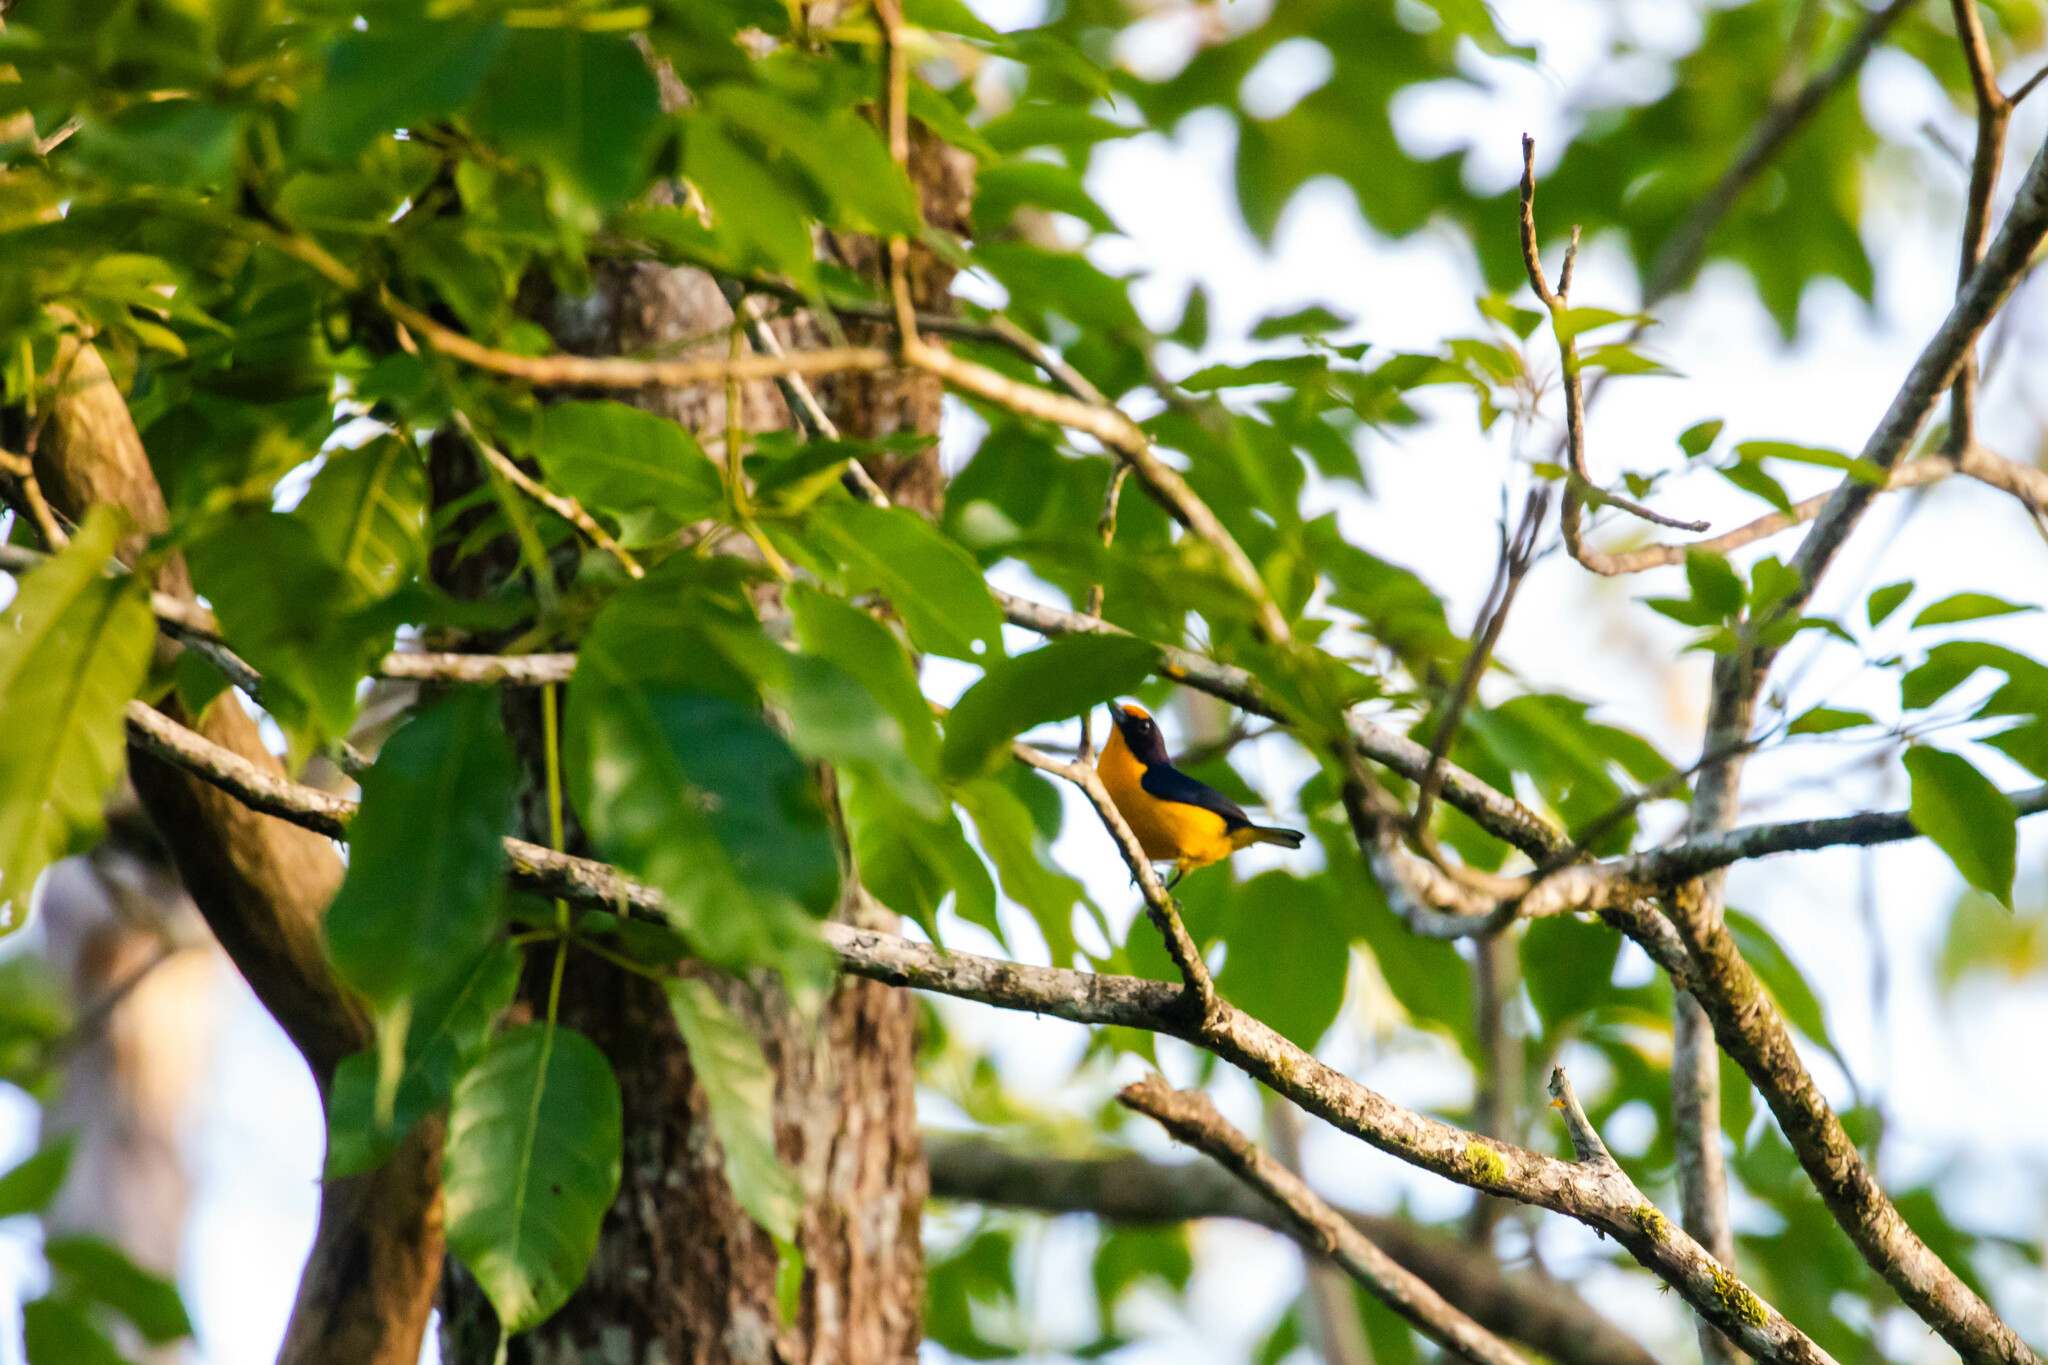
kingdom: Animalia
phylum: Chordata
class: Aves
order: Passeriformes
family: Fringillidae
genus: Euphonia
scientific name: Euphonia violacea
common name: Violaceous euphonia
